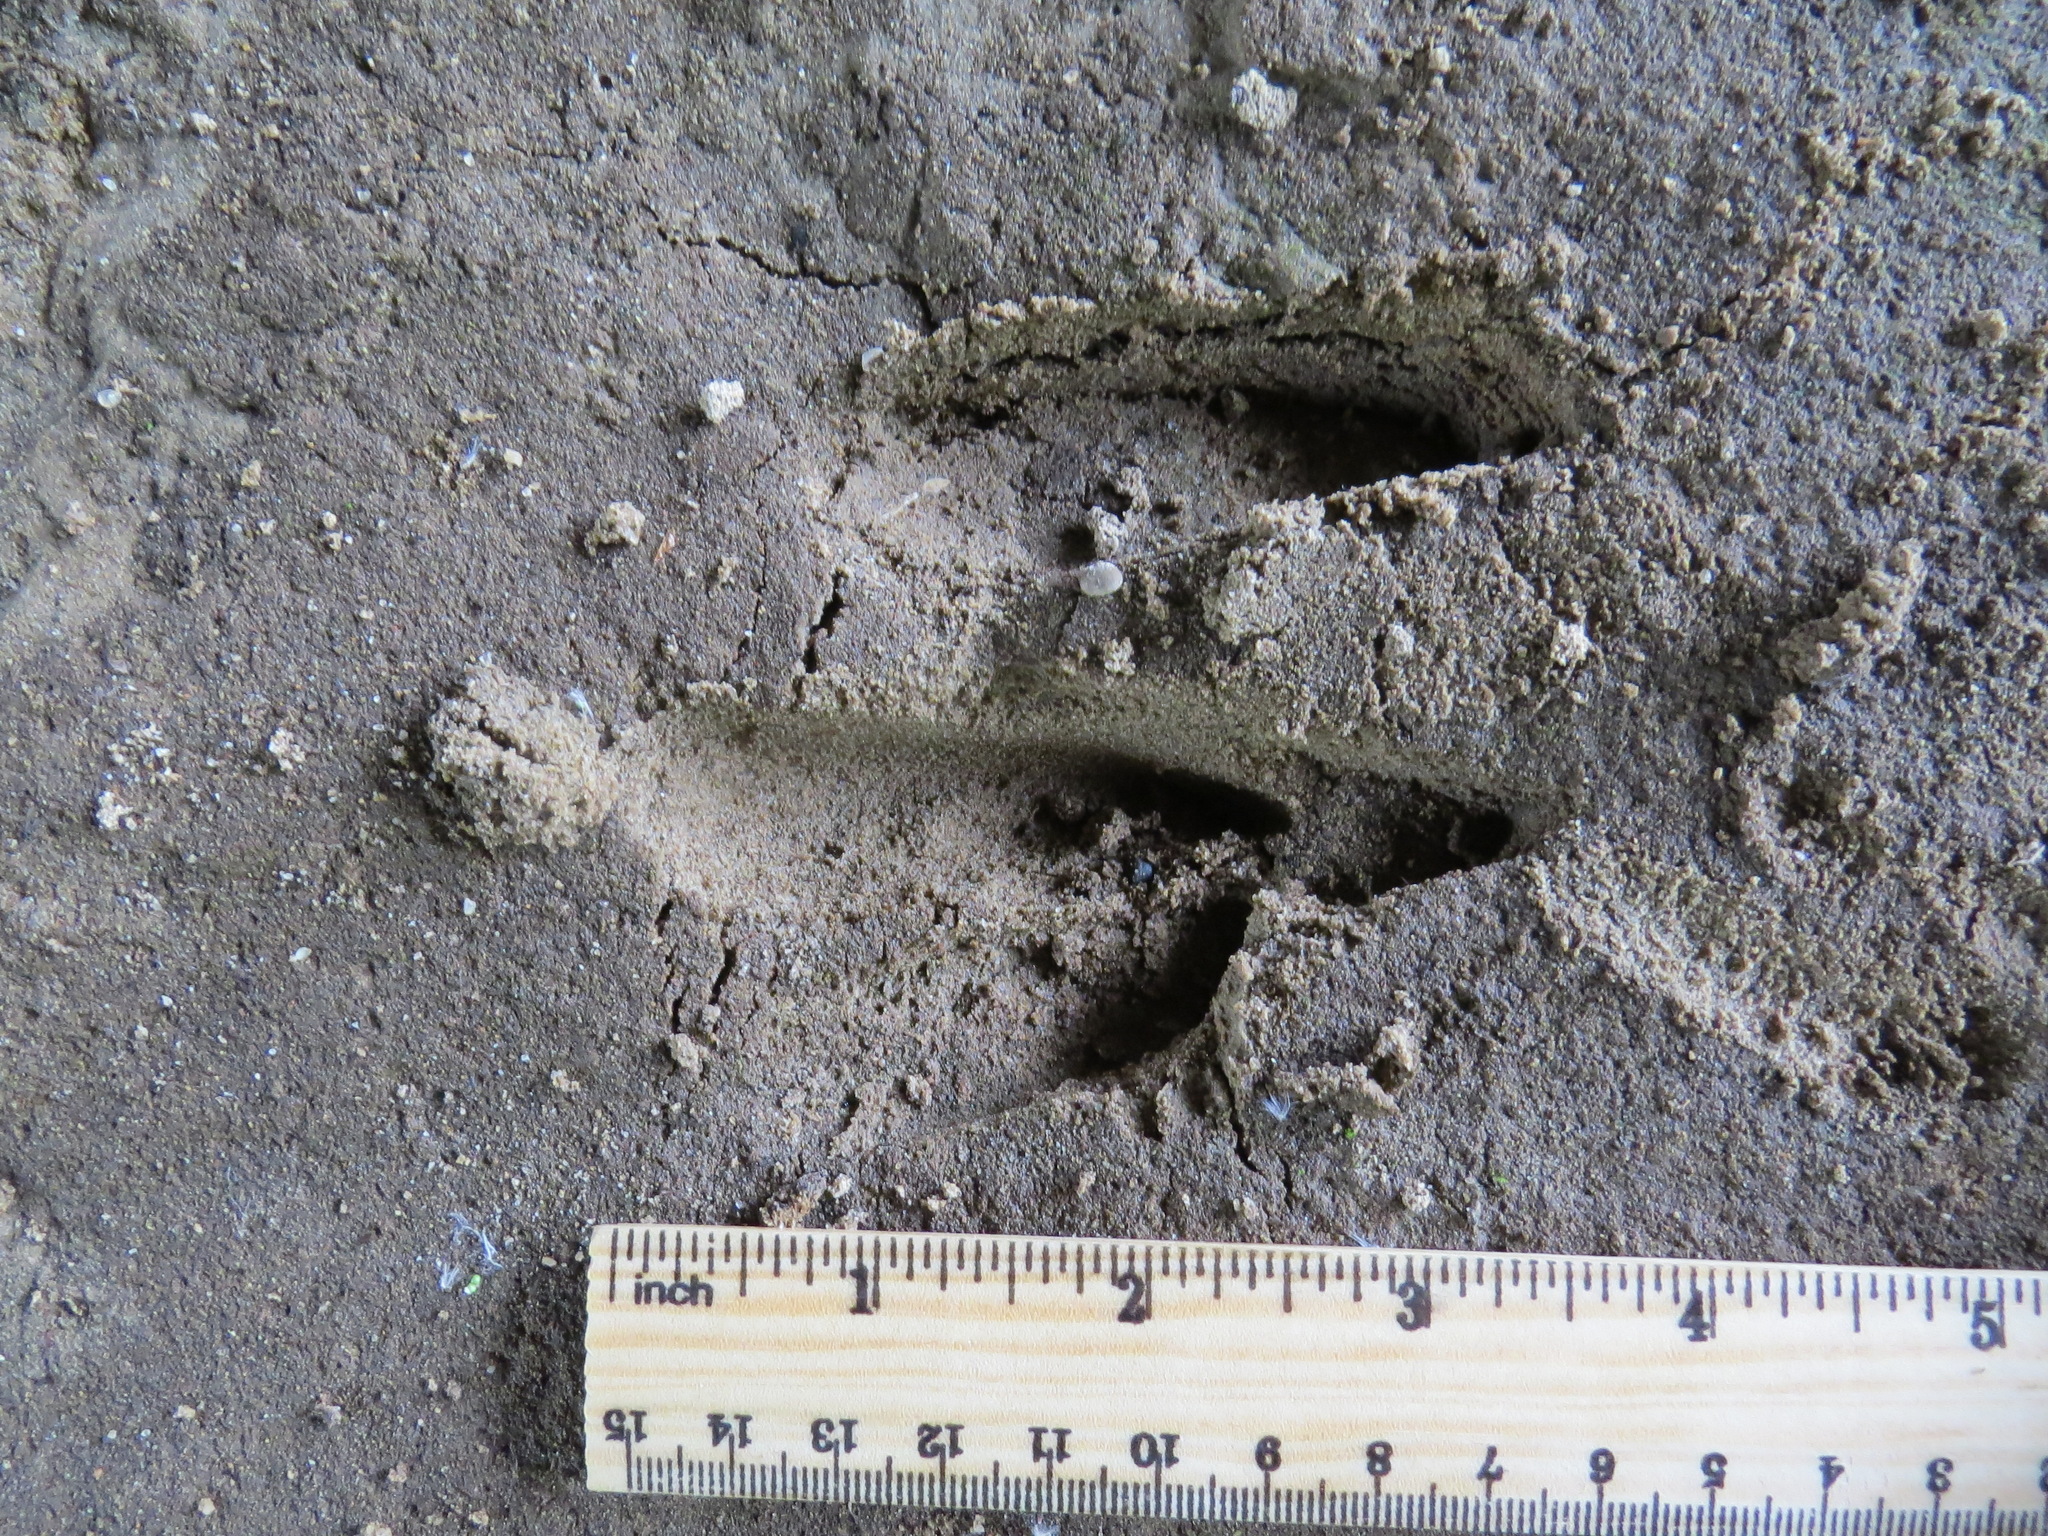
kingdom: Animalia
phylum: Chordata
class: Mammalia
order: Artiodactyla
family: Cervidae
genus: Odocoileus
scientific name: Odocoileus hemionus
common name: Mule deer
